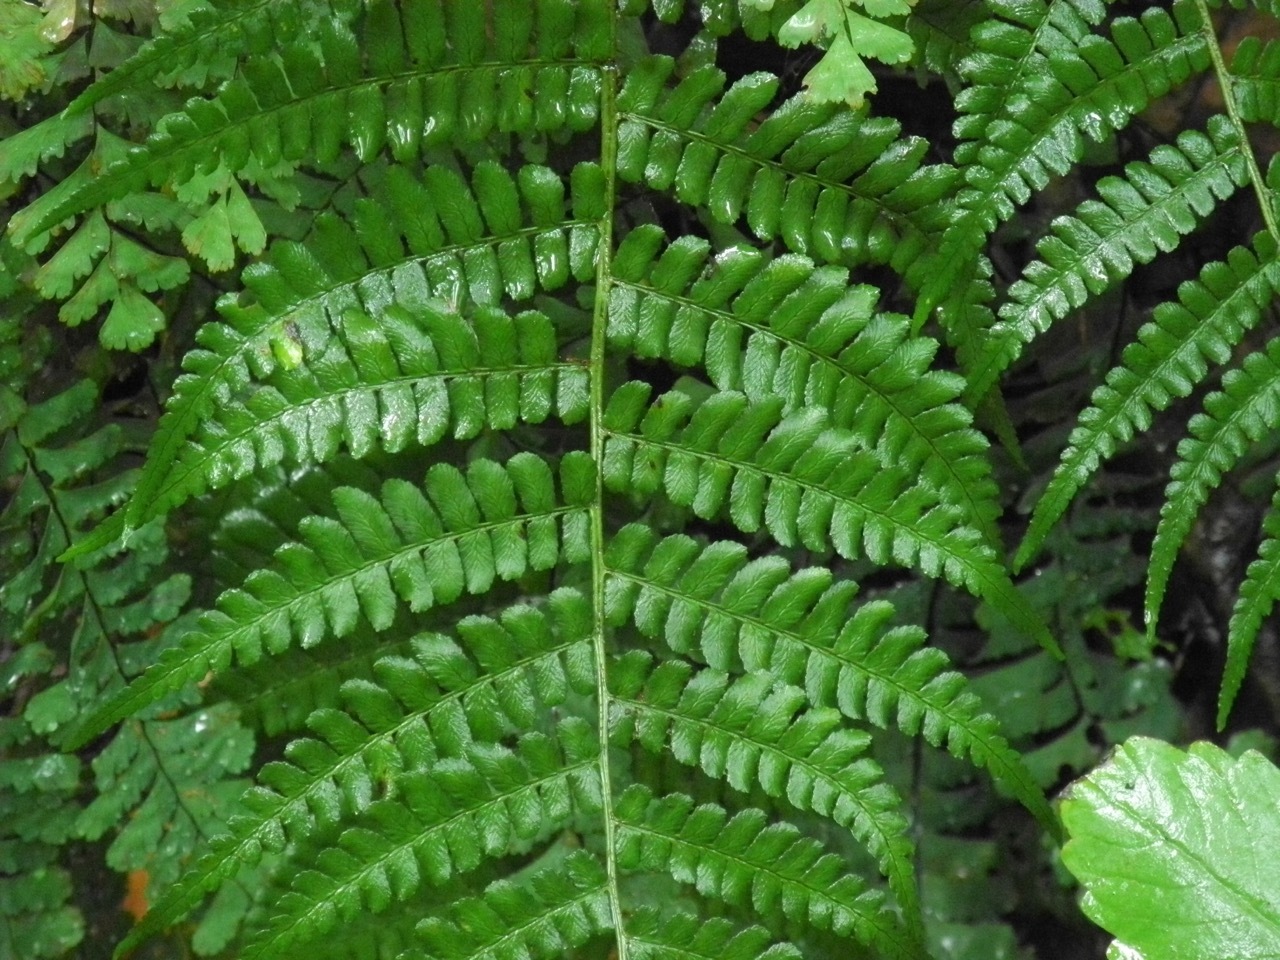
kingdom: Plantae
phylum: Tracheophyta
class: Polypodiopsida
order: Polypodiales
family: Dryopteridaceae
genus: Dryopteris
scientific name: Dryopteris marginalis
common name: Marginal wood fern
